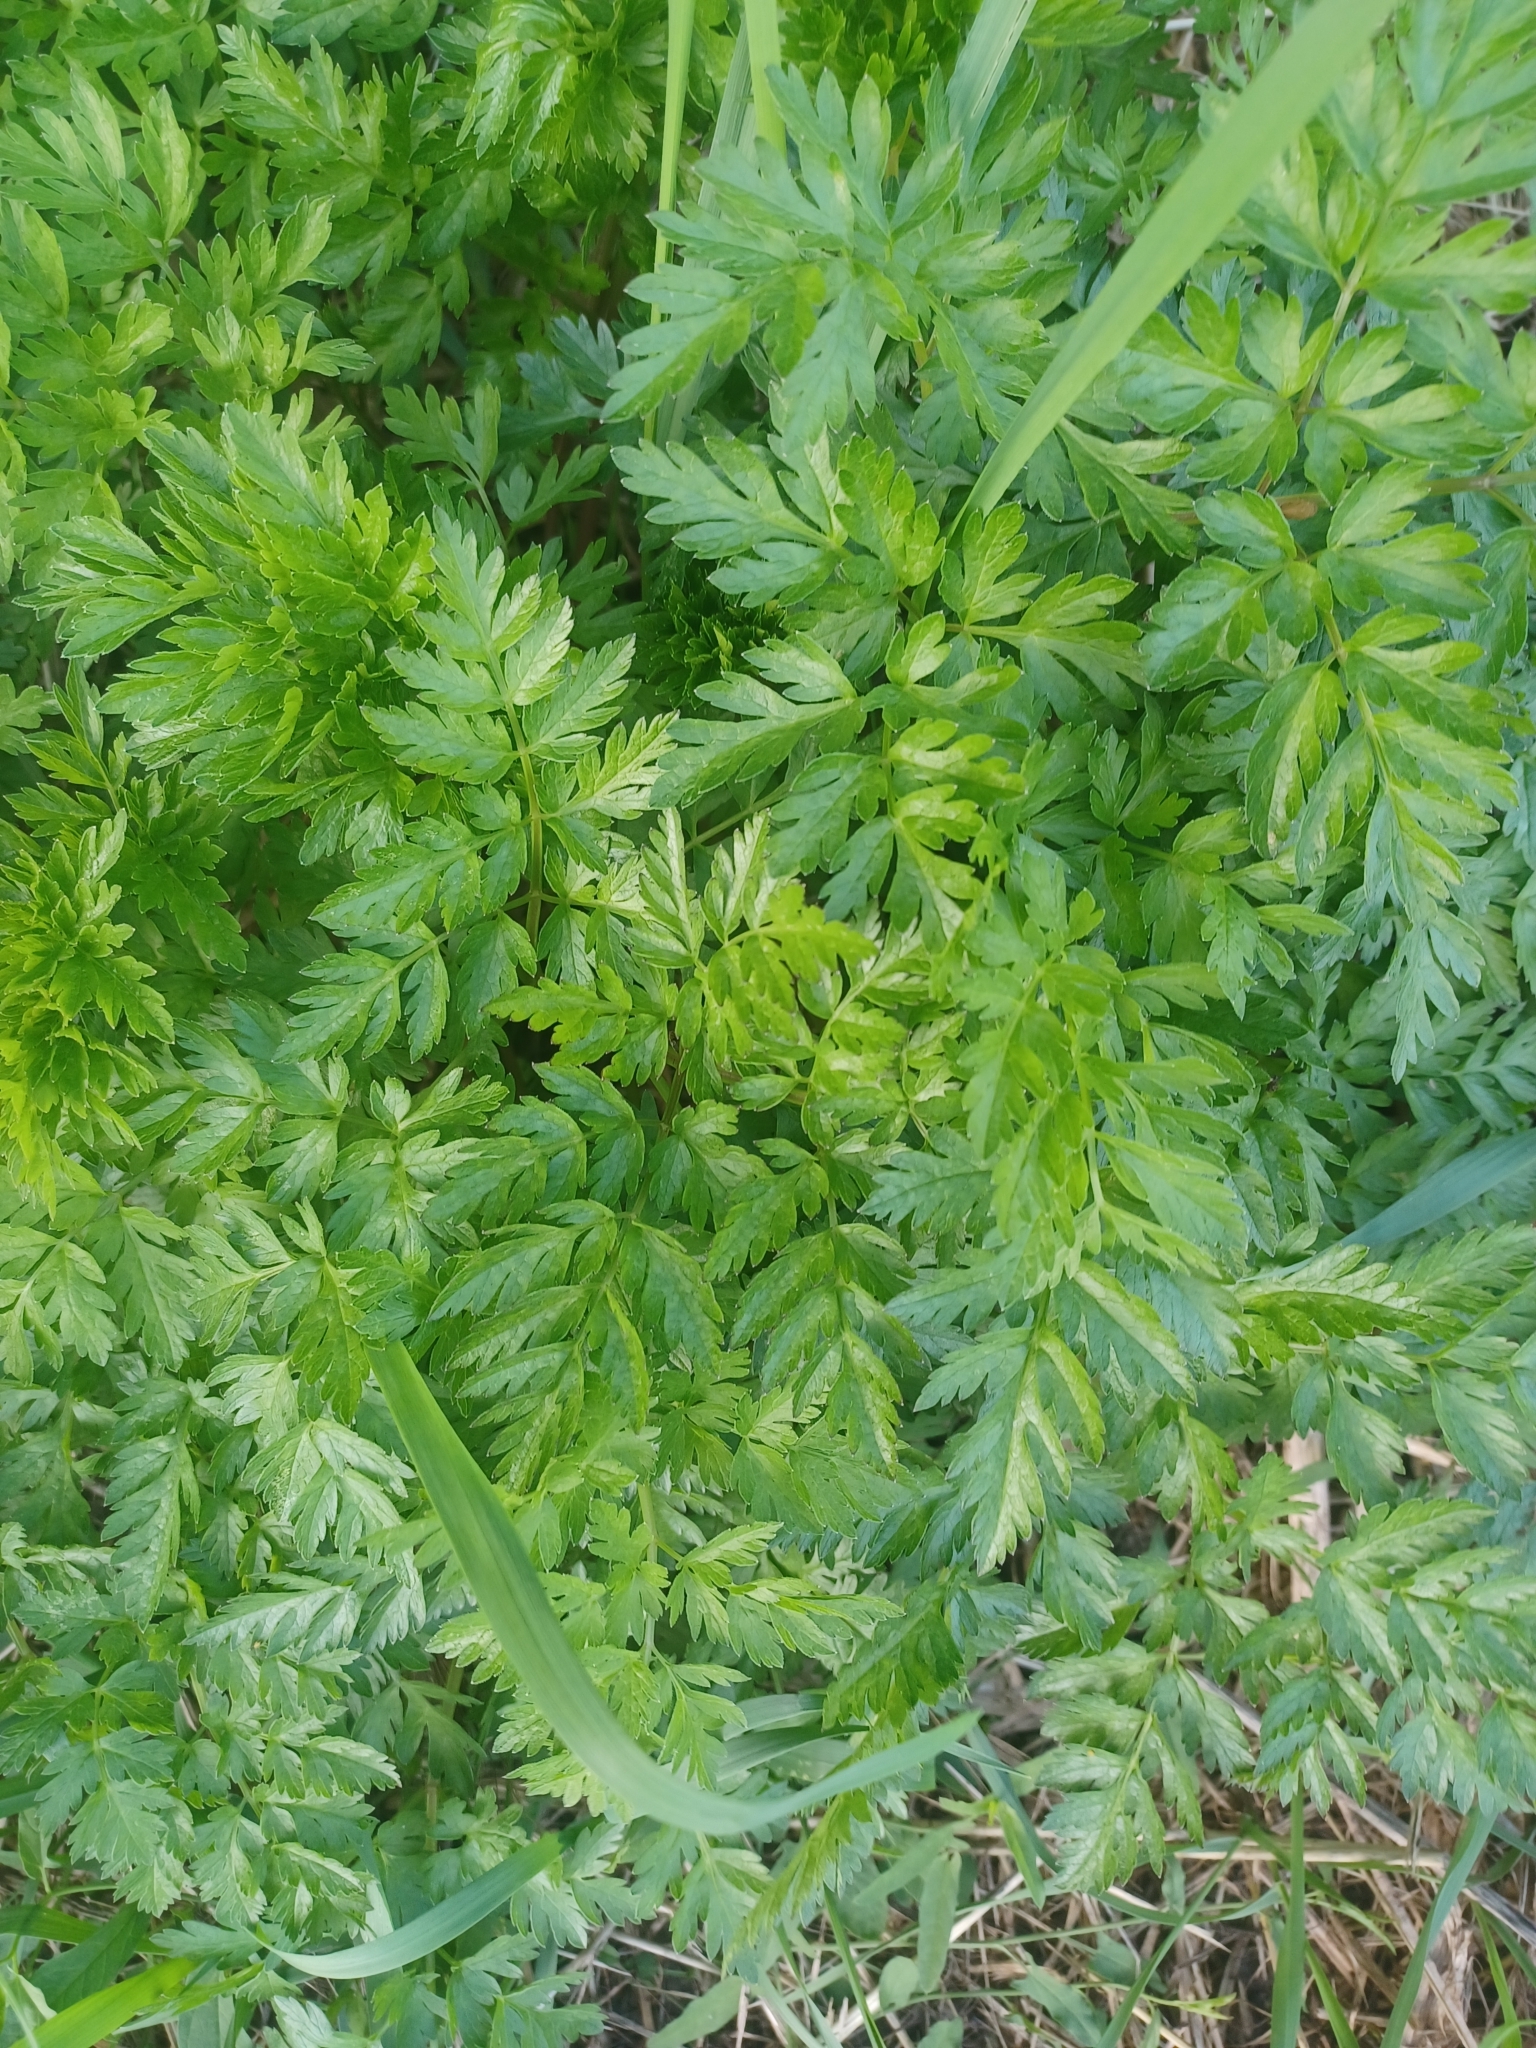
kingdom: Plantae
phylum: Tracheophyta
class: Magnoliopsida
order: Apiales
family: Apiaceae
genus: Anthriscus
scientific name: Anthriscus sylvestris
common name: Cow parsley
